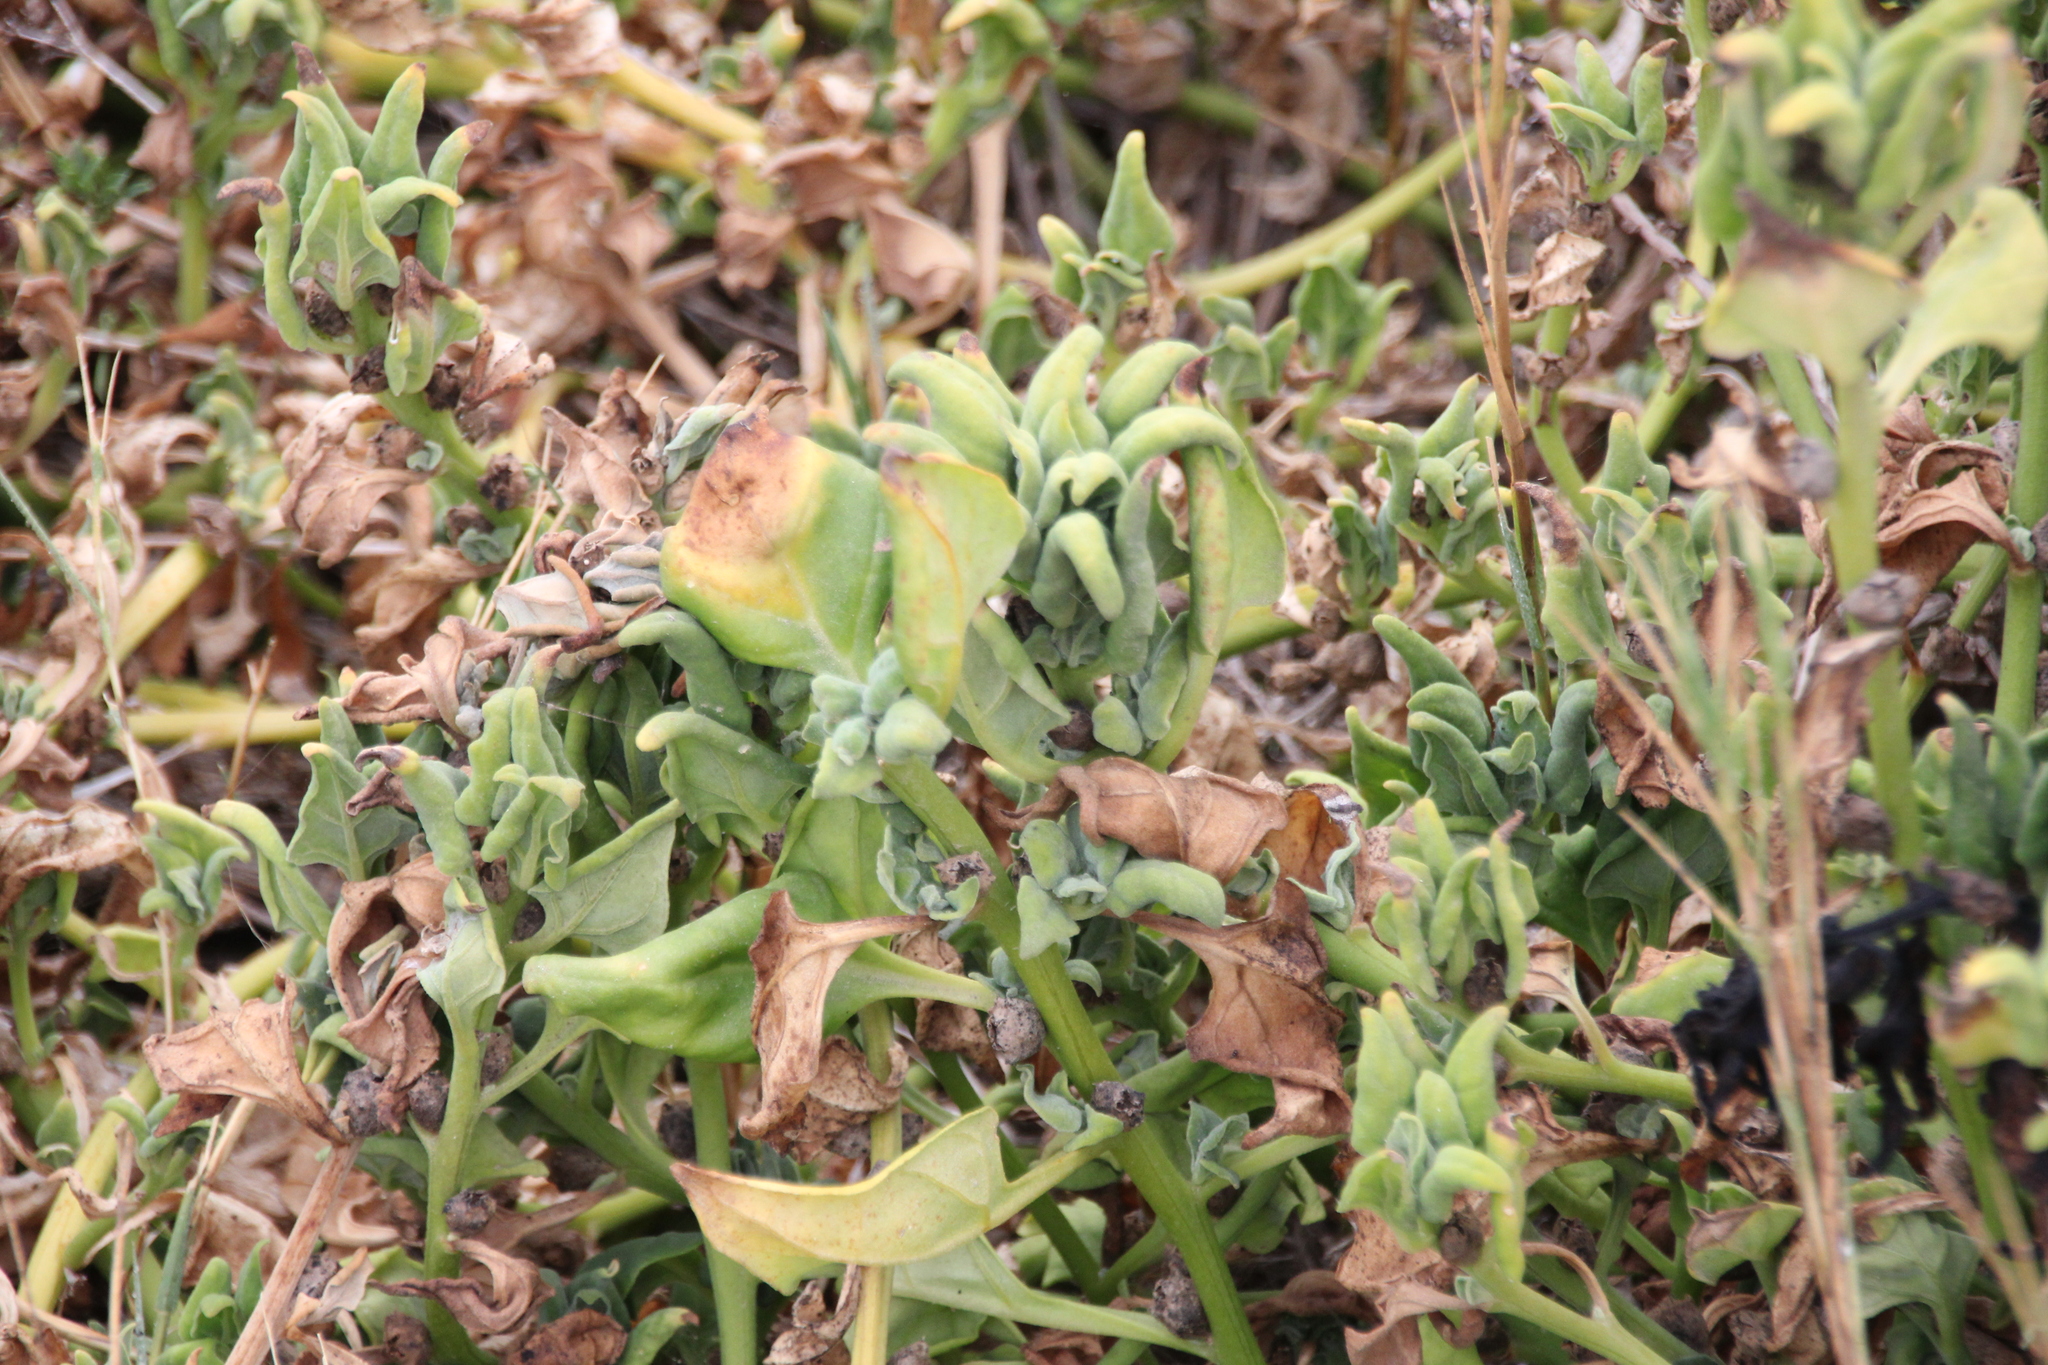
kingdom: Plantae
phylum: Tracheophyta
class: Magnoliopsida
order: Caryophyllales
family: Aizoaceae
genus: Tetragonia
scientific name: Tetragonia tetragonoides
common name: New zealand-spinach
